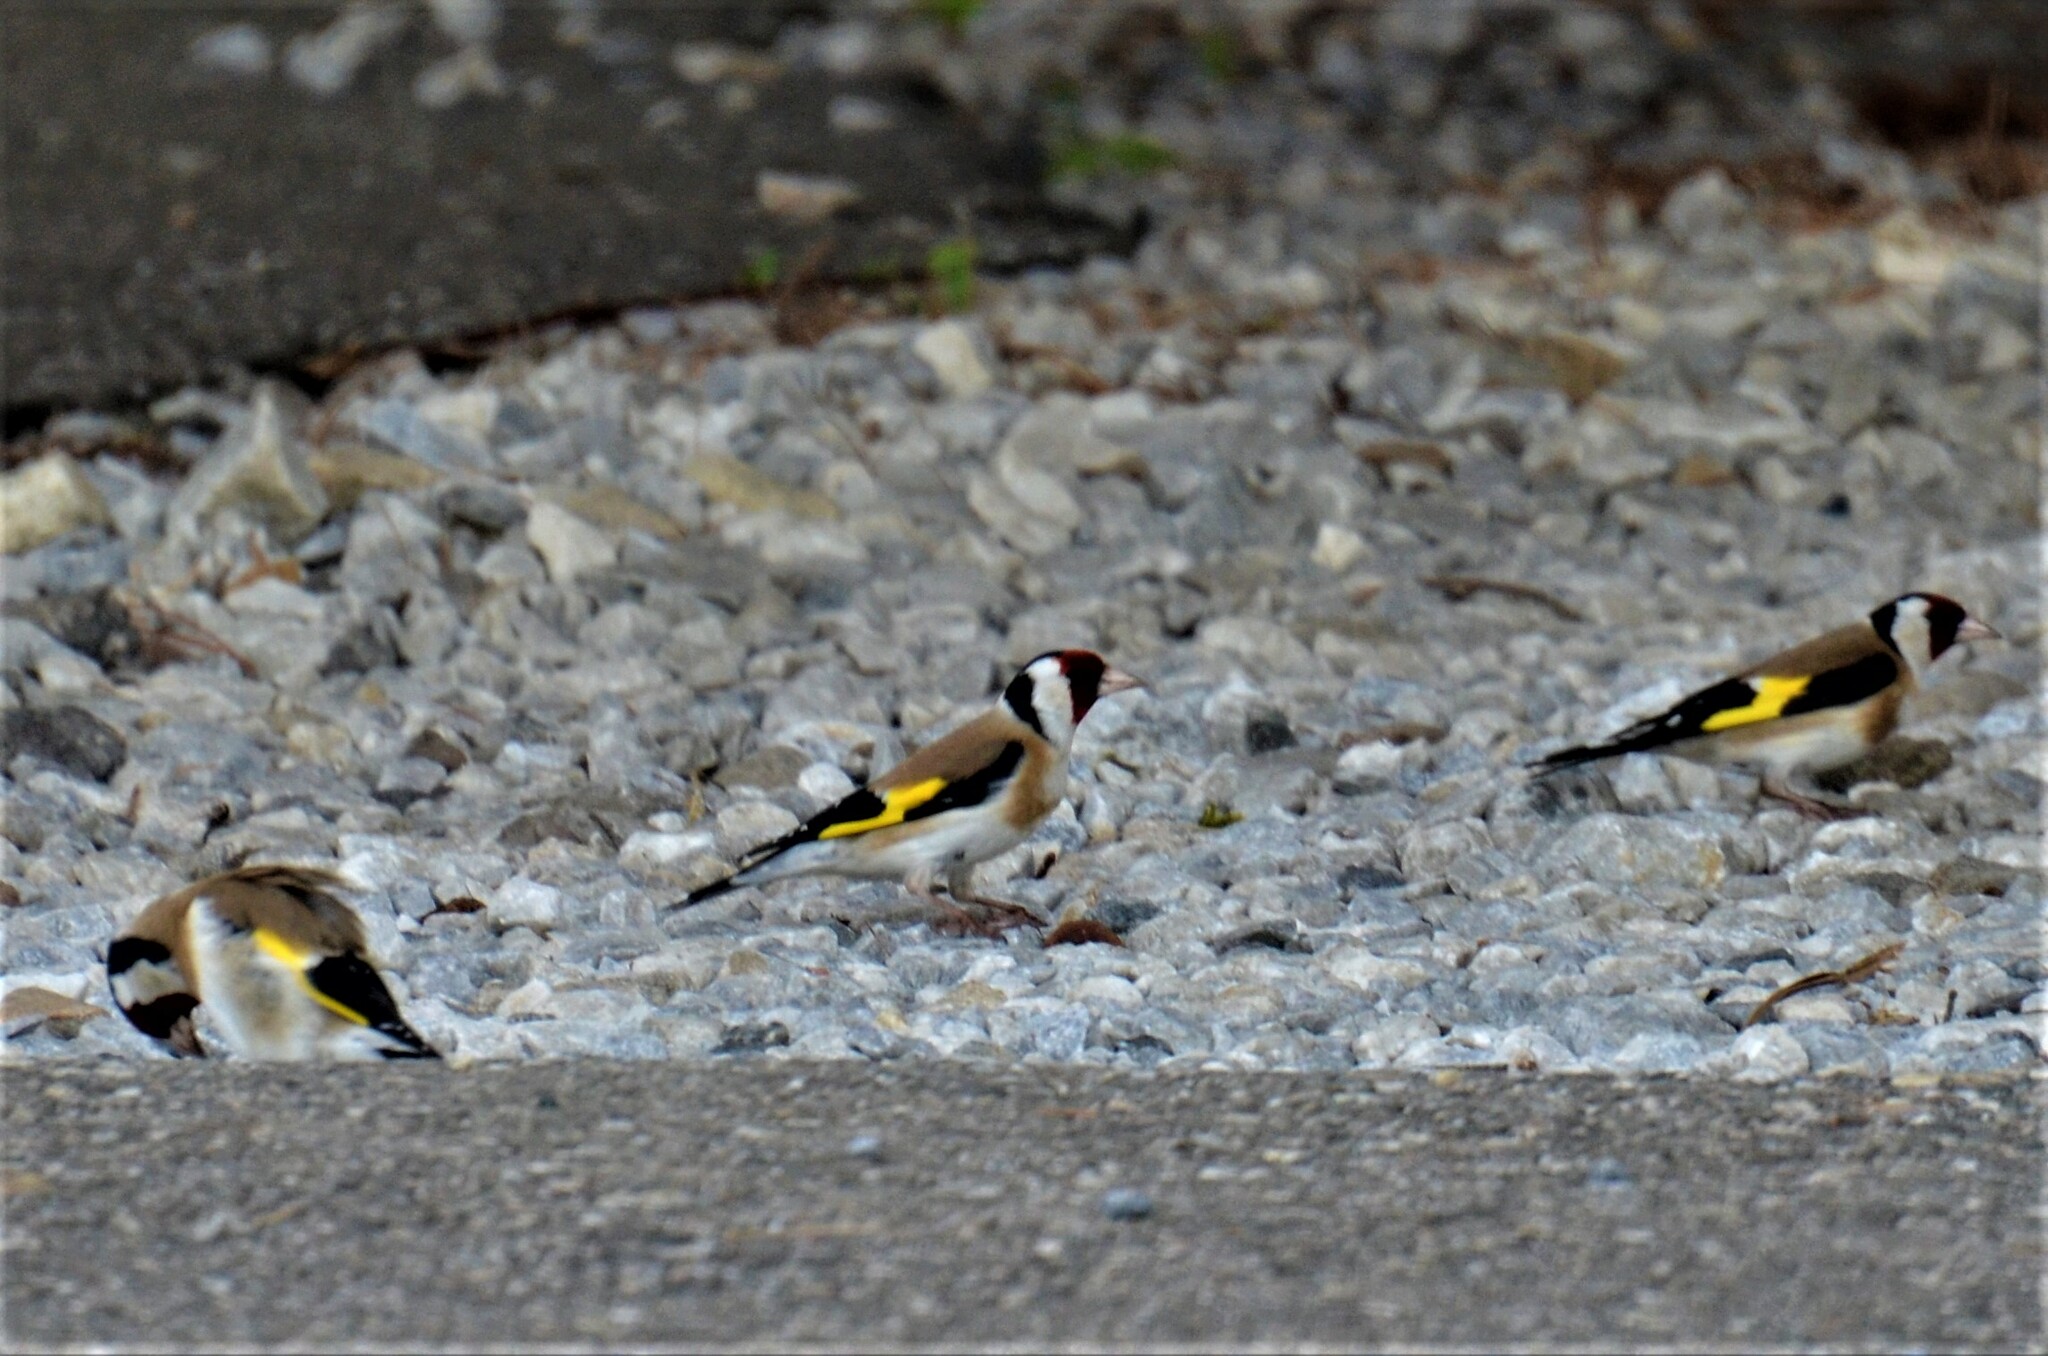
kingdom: Animalia
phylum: Chordata
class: Aves
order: Passeriformes
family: Fringillidae
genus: Carduelis
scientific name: Carduelis carduelis
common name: European goldfinch
